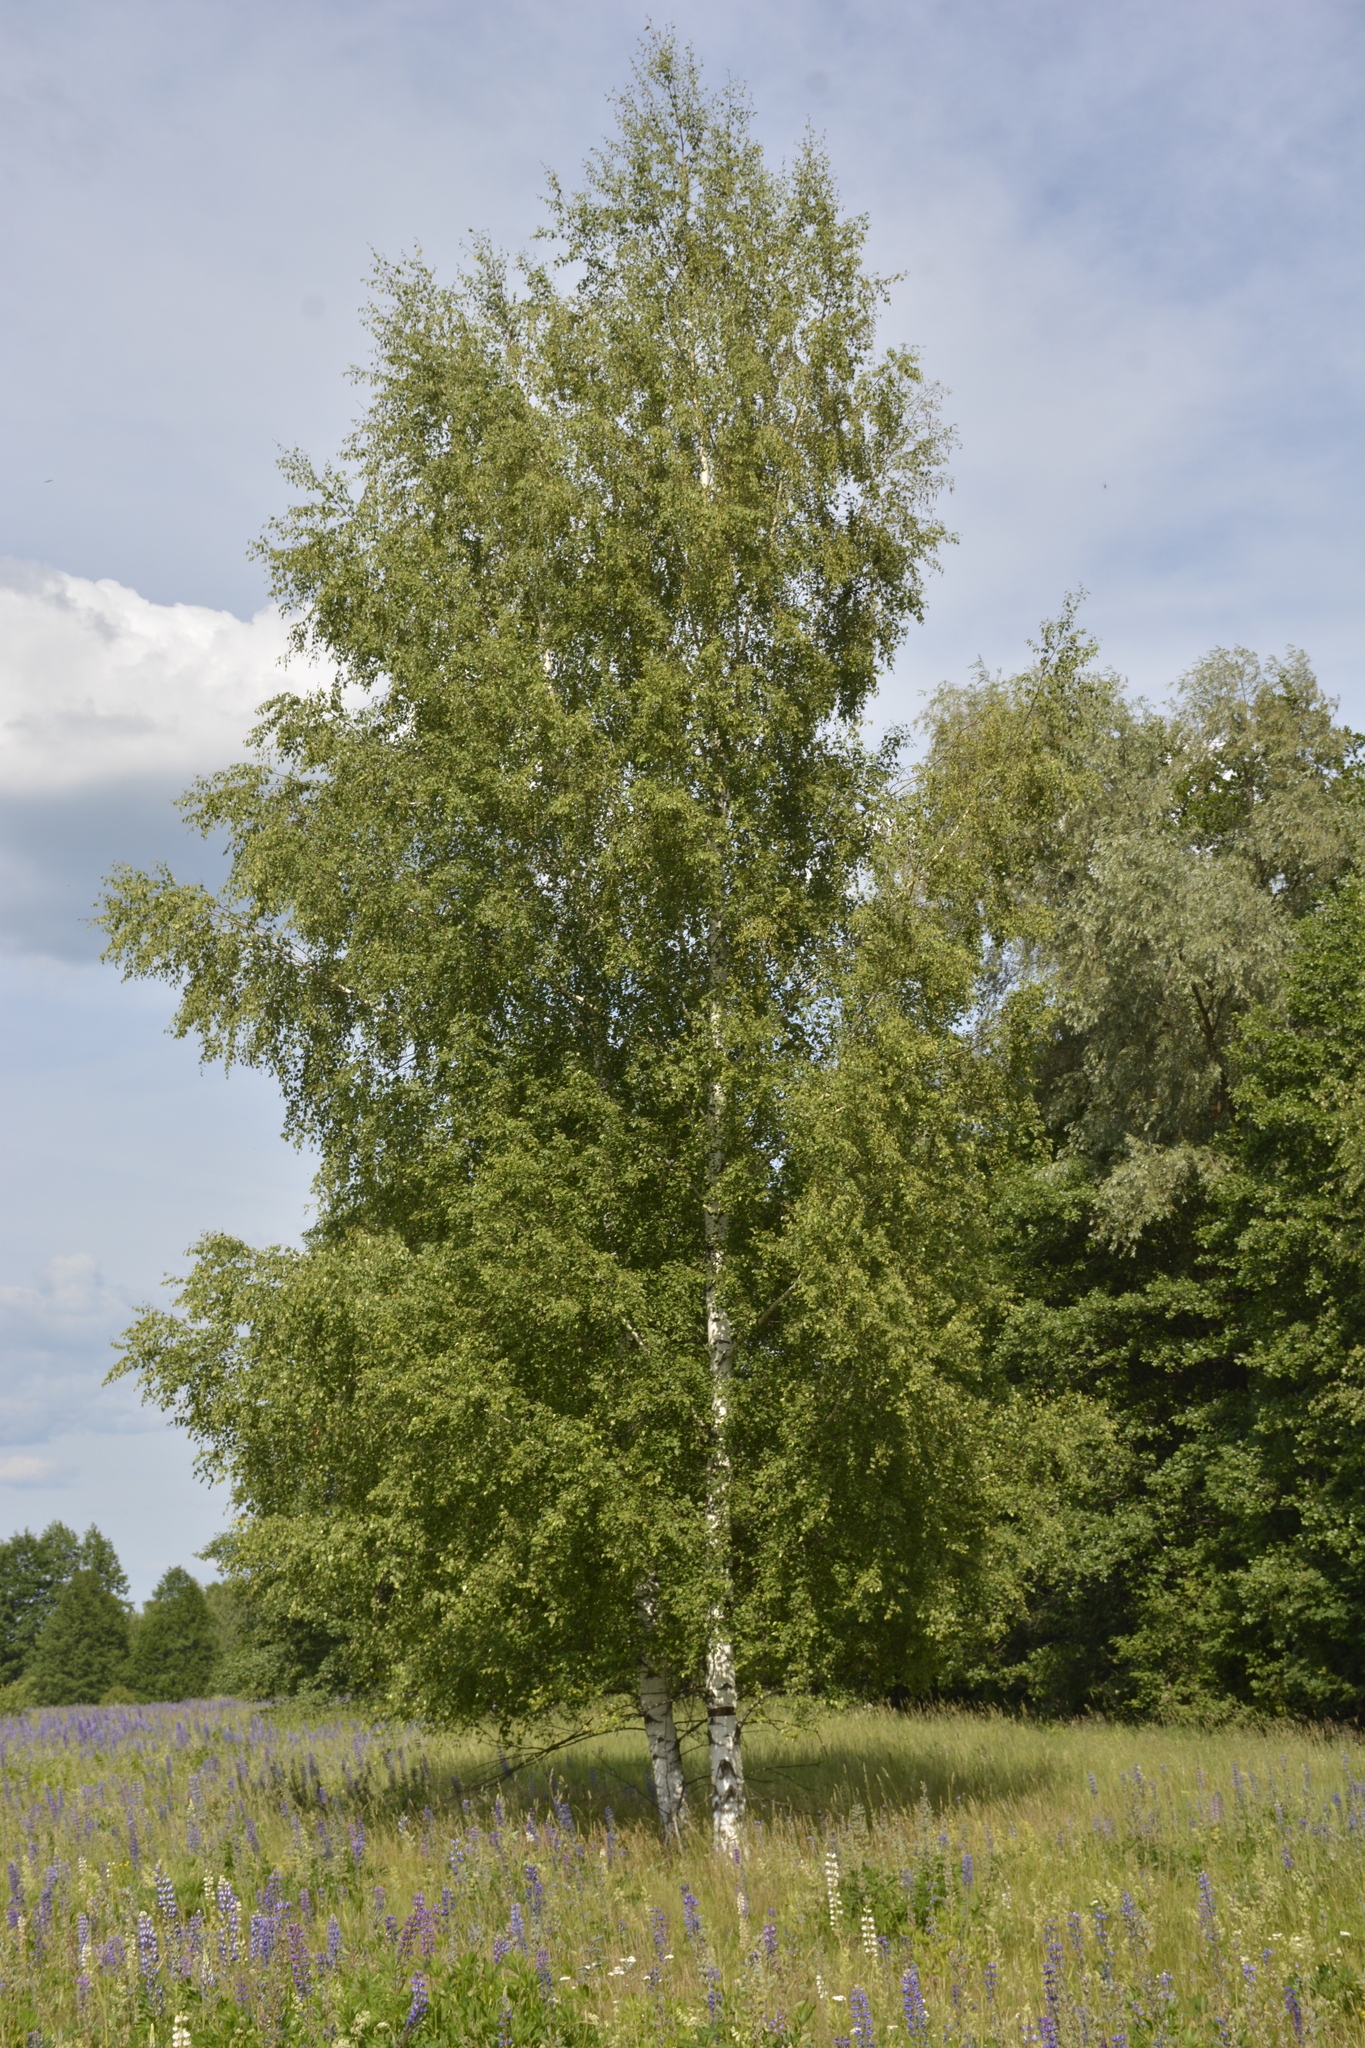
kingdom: Plantae
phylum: Tracheophyta
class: Magnoliopsida
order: Fagales
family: Betulaceae
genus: Betula
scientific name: Betula pendula
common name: Silver birch
